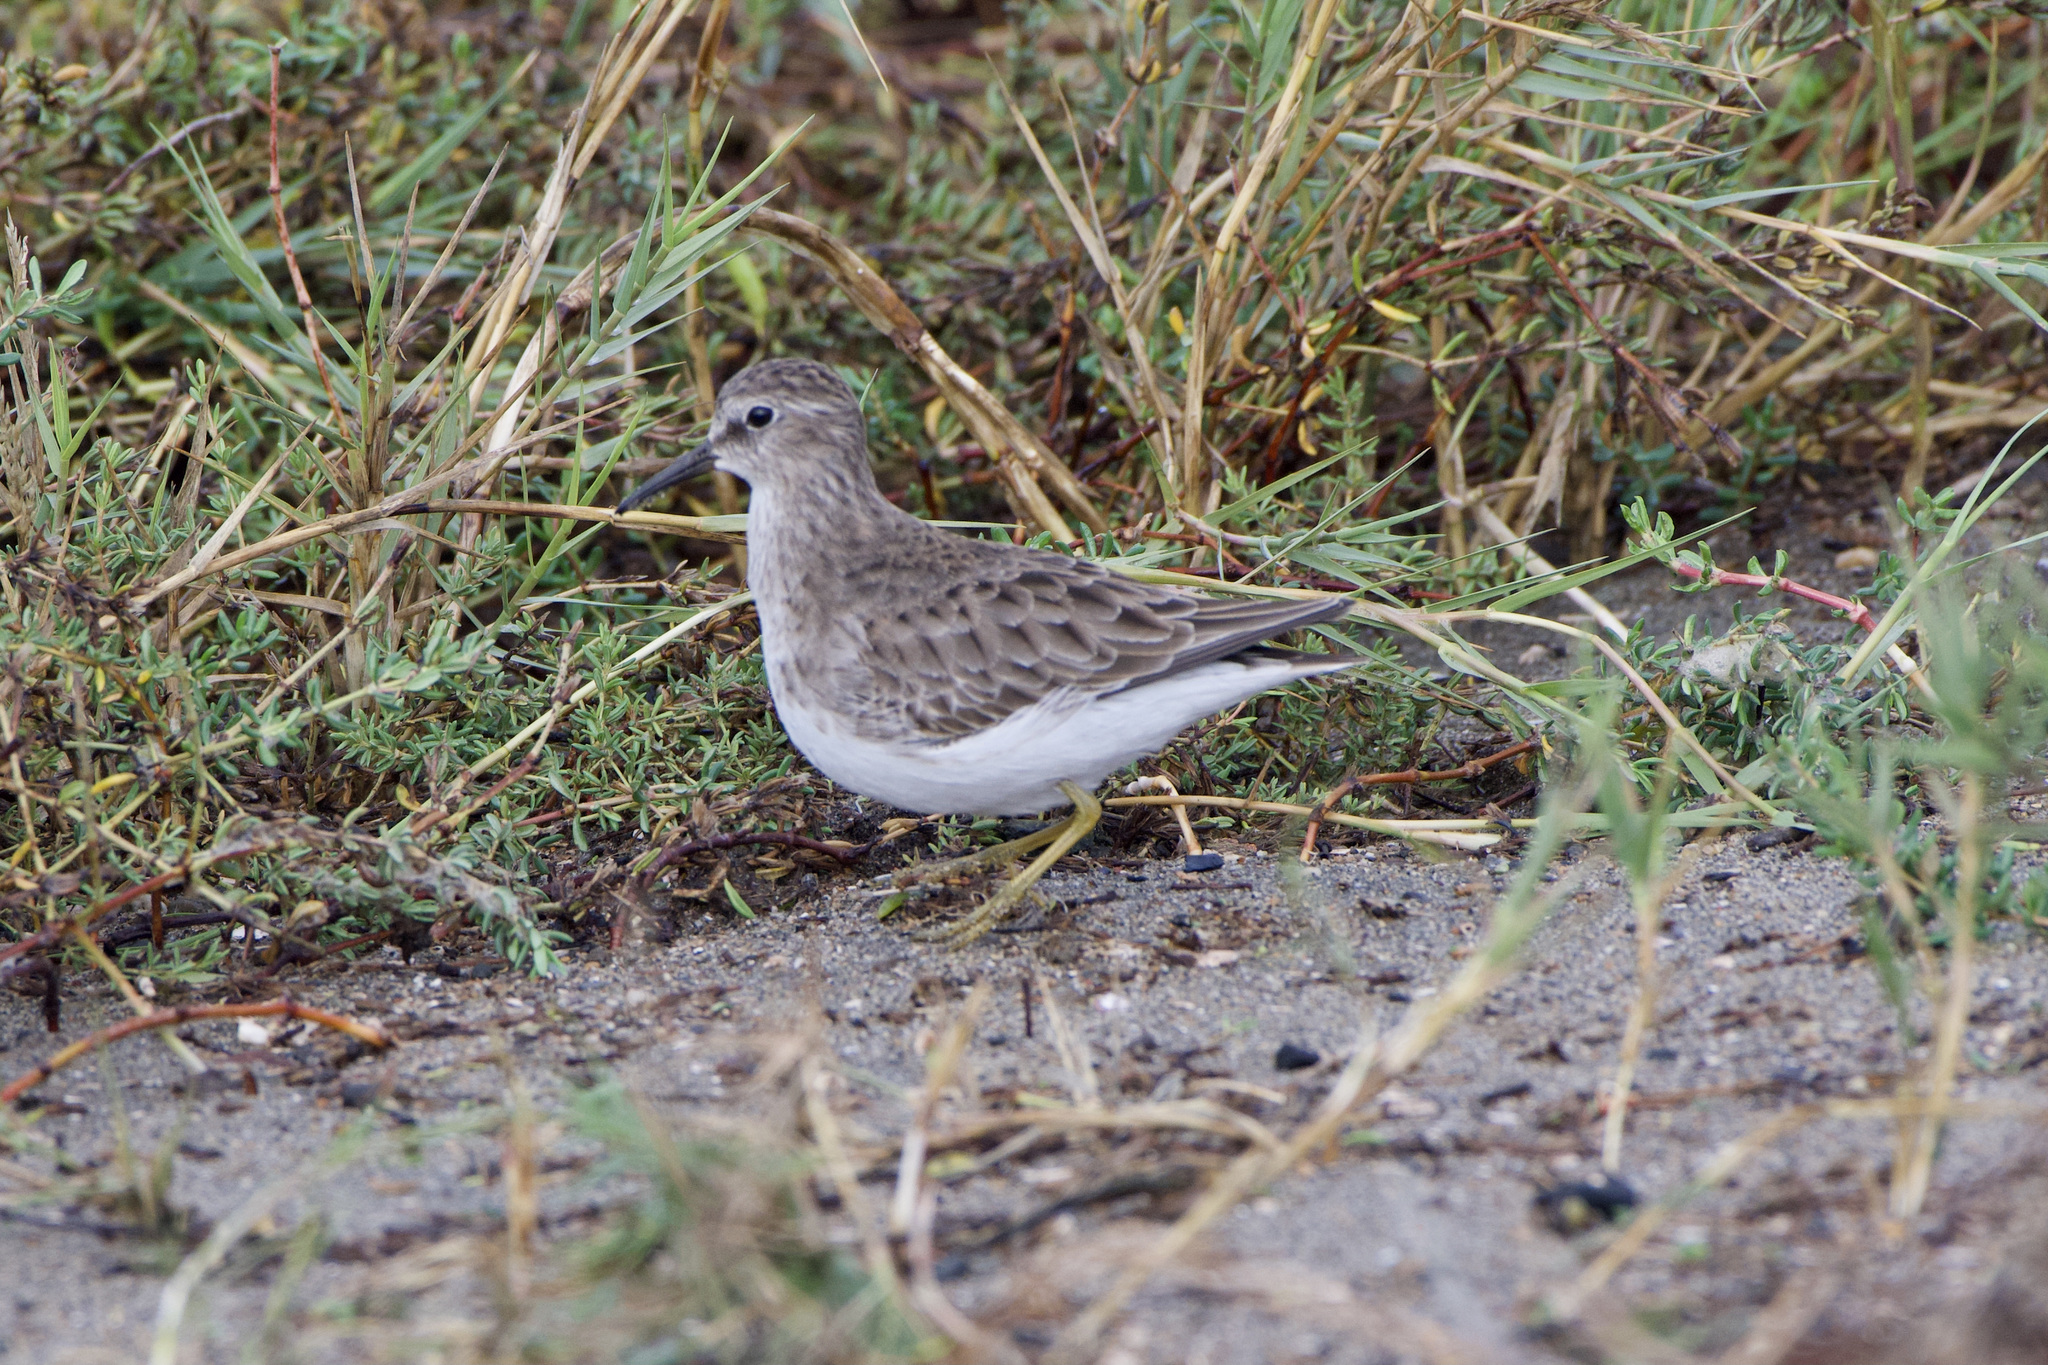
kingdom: Animalia
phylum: Chordata
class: Aves
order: Charadriiformes
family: Scolopacidae
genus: Calidris
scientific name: Calidris minutilla
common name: Least sandpiper
